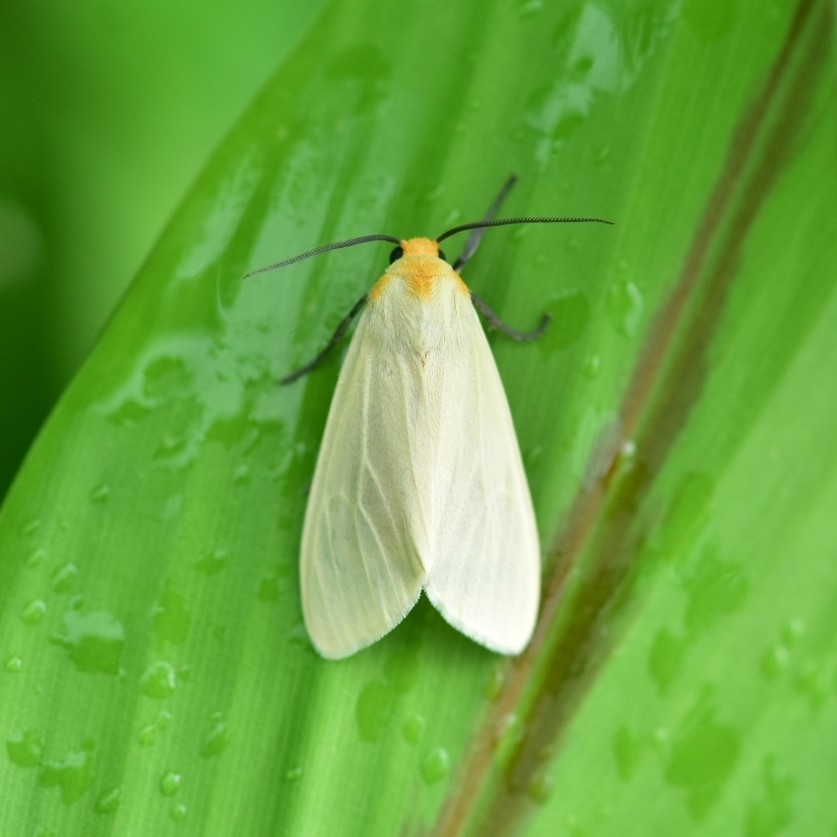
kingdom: Animalia
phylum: Arthropoda
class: Insecta
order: Lepidoptera
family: Erebidae
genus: Pareuchaetes
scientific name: Pareuchaetes pseudoinsulata
